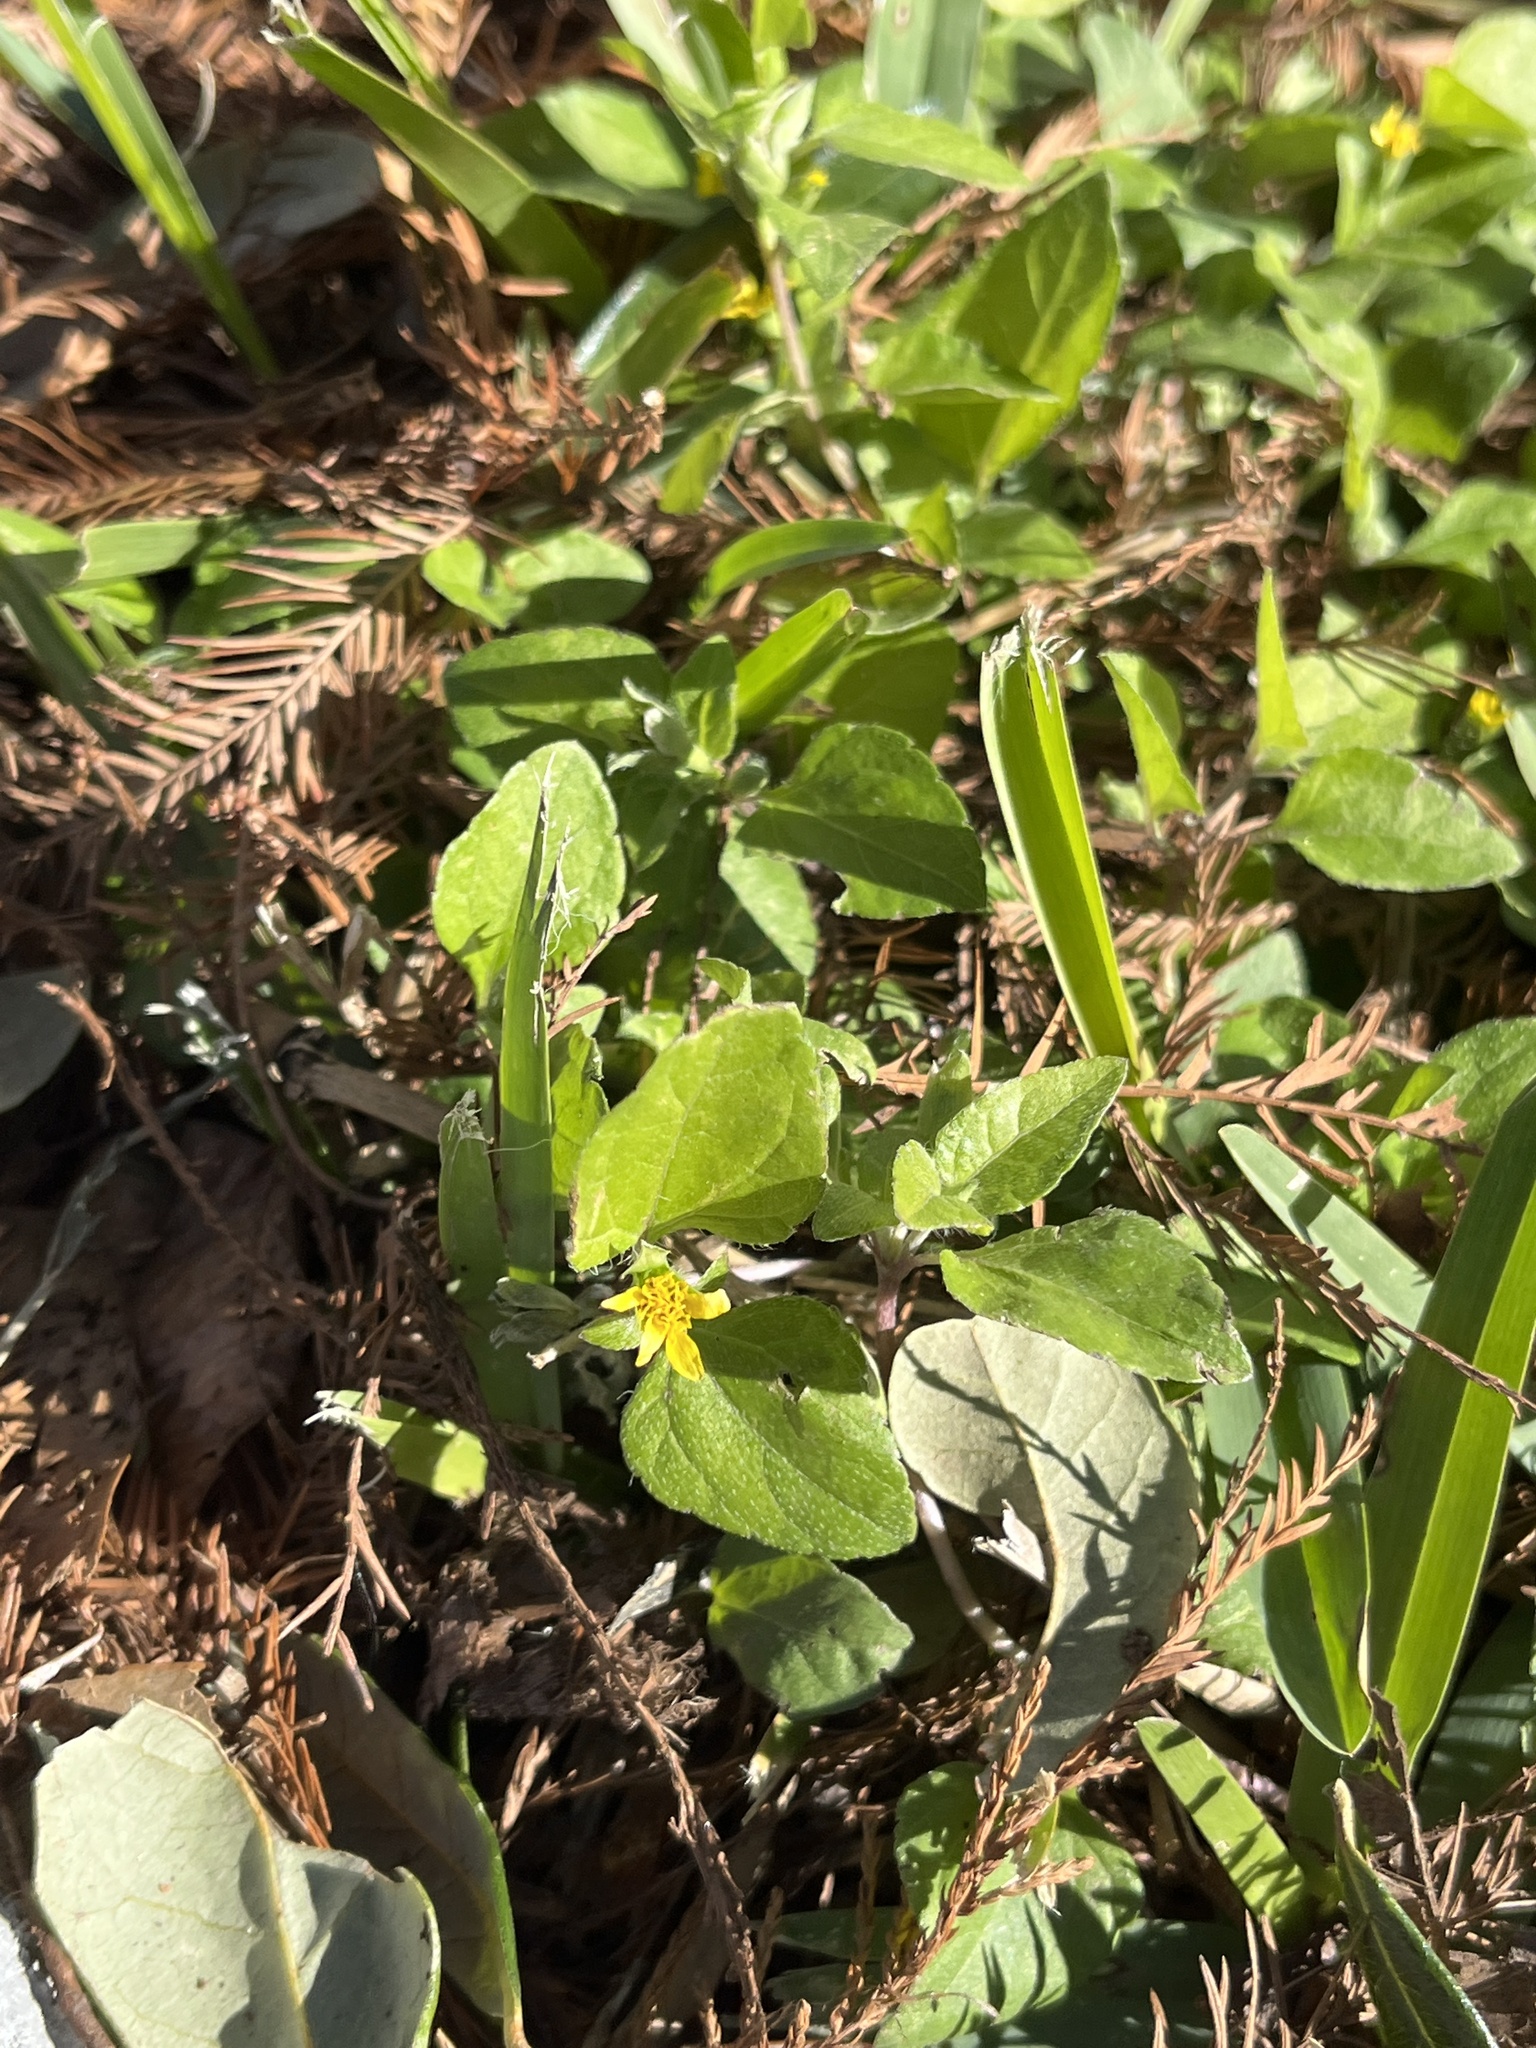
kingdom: Plantae
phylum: Tracheophyta
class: Magnoliopsida
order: Asterales
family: Asteraceae
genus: Calyptocarpus
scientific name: Calyptocarpus vialis
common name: Straggler daisy
